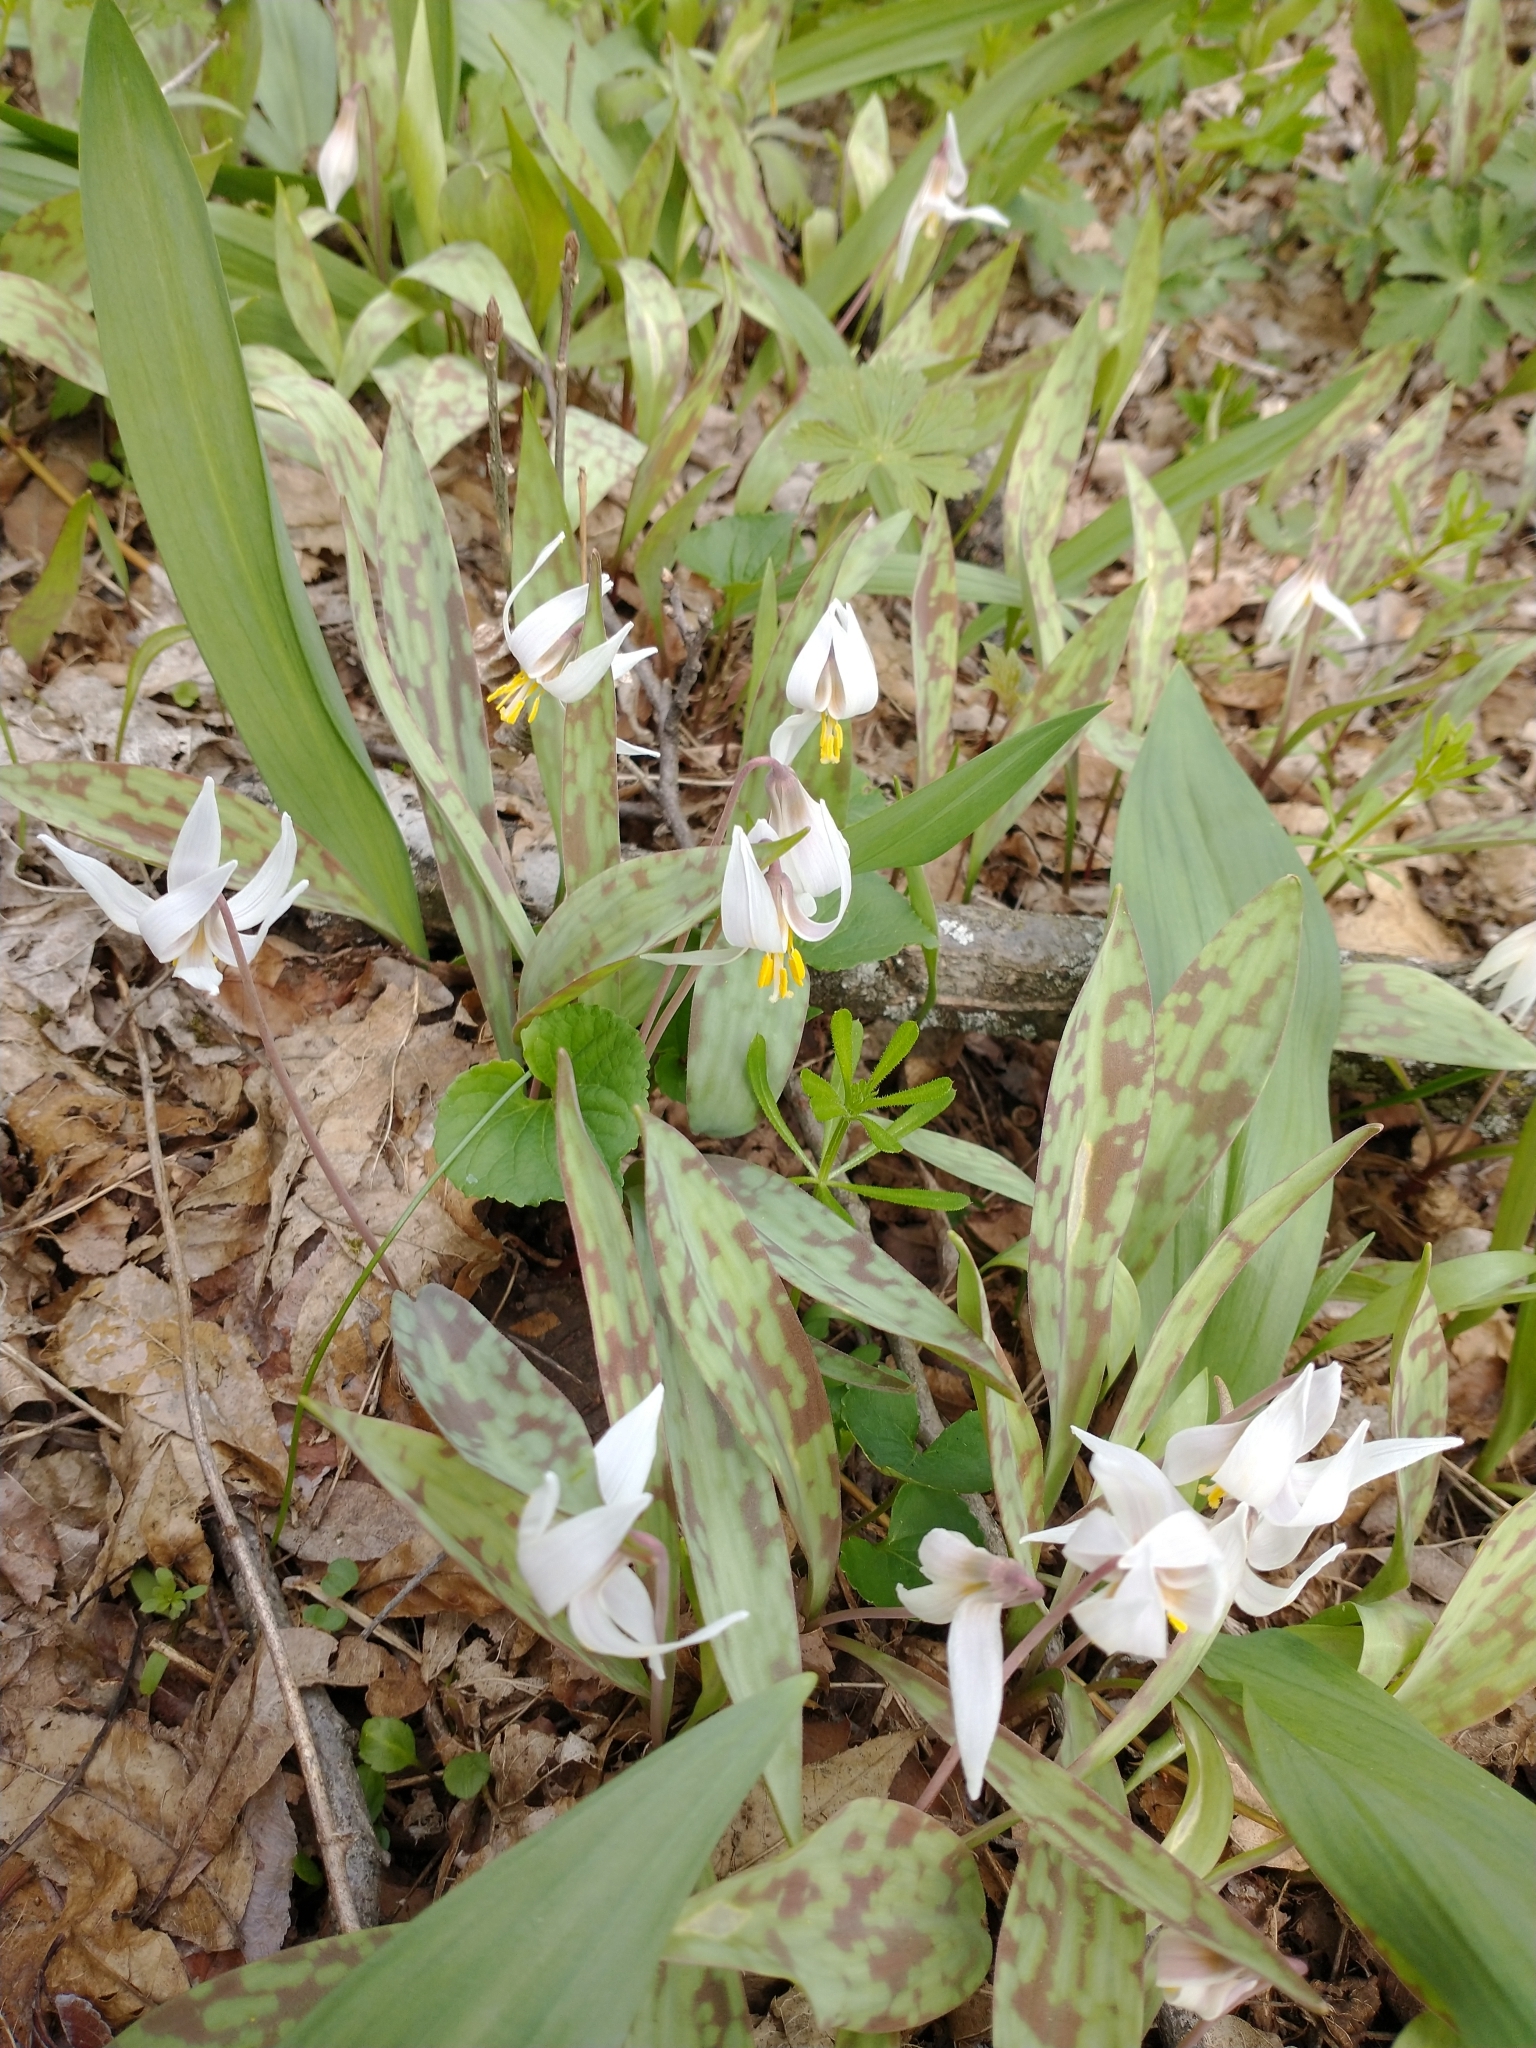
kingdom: Plantae
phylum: Tracheophyta
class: Liliopsida
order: Liliales
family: Liliaceae
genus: Erythronium
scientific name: Erythronium albidum
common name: White trout-lily
